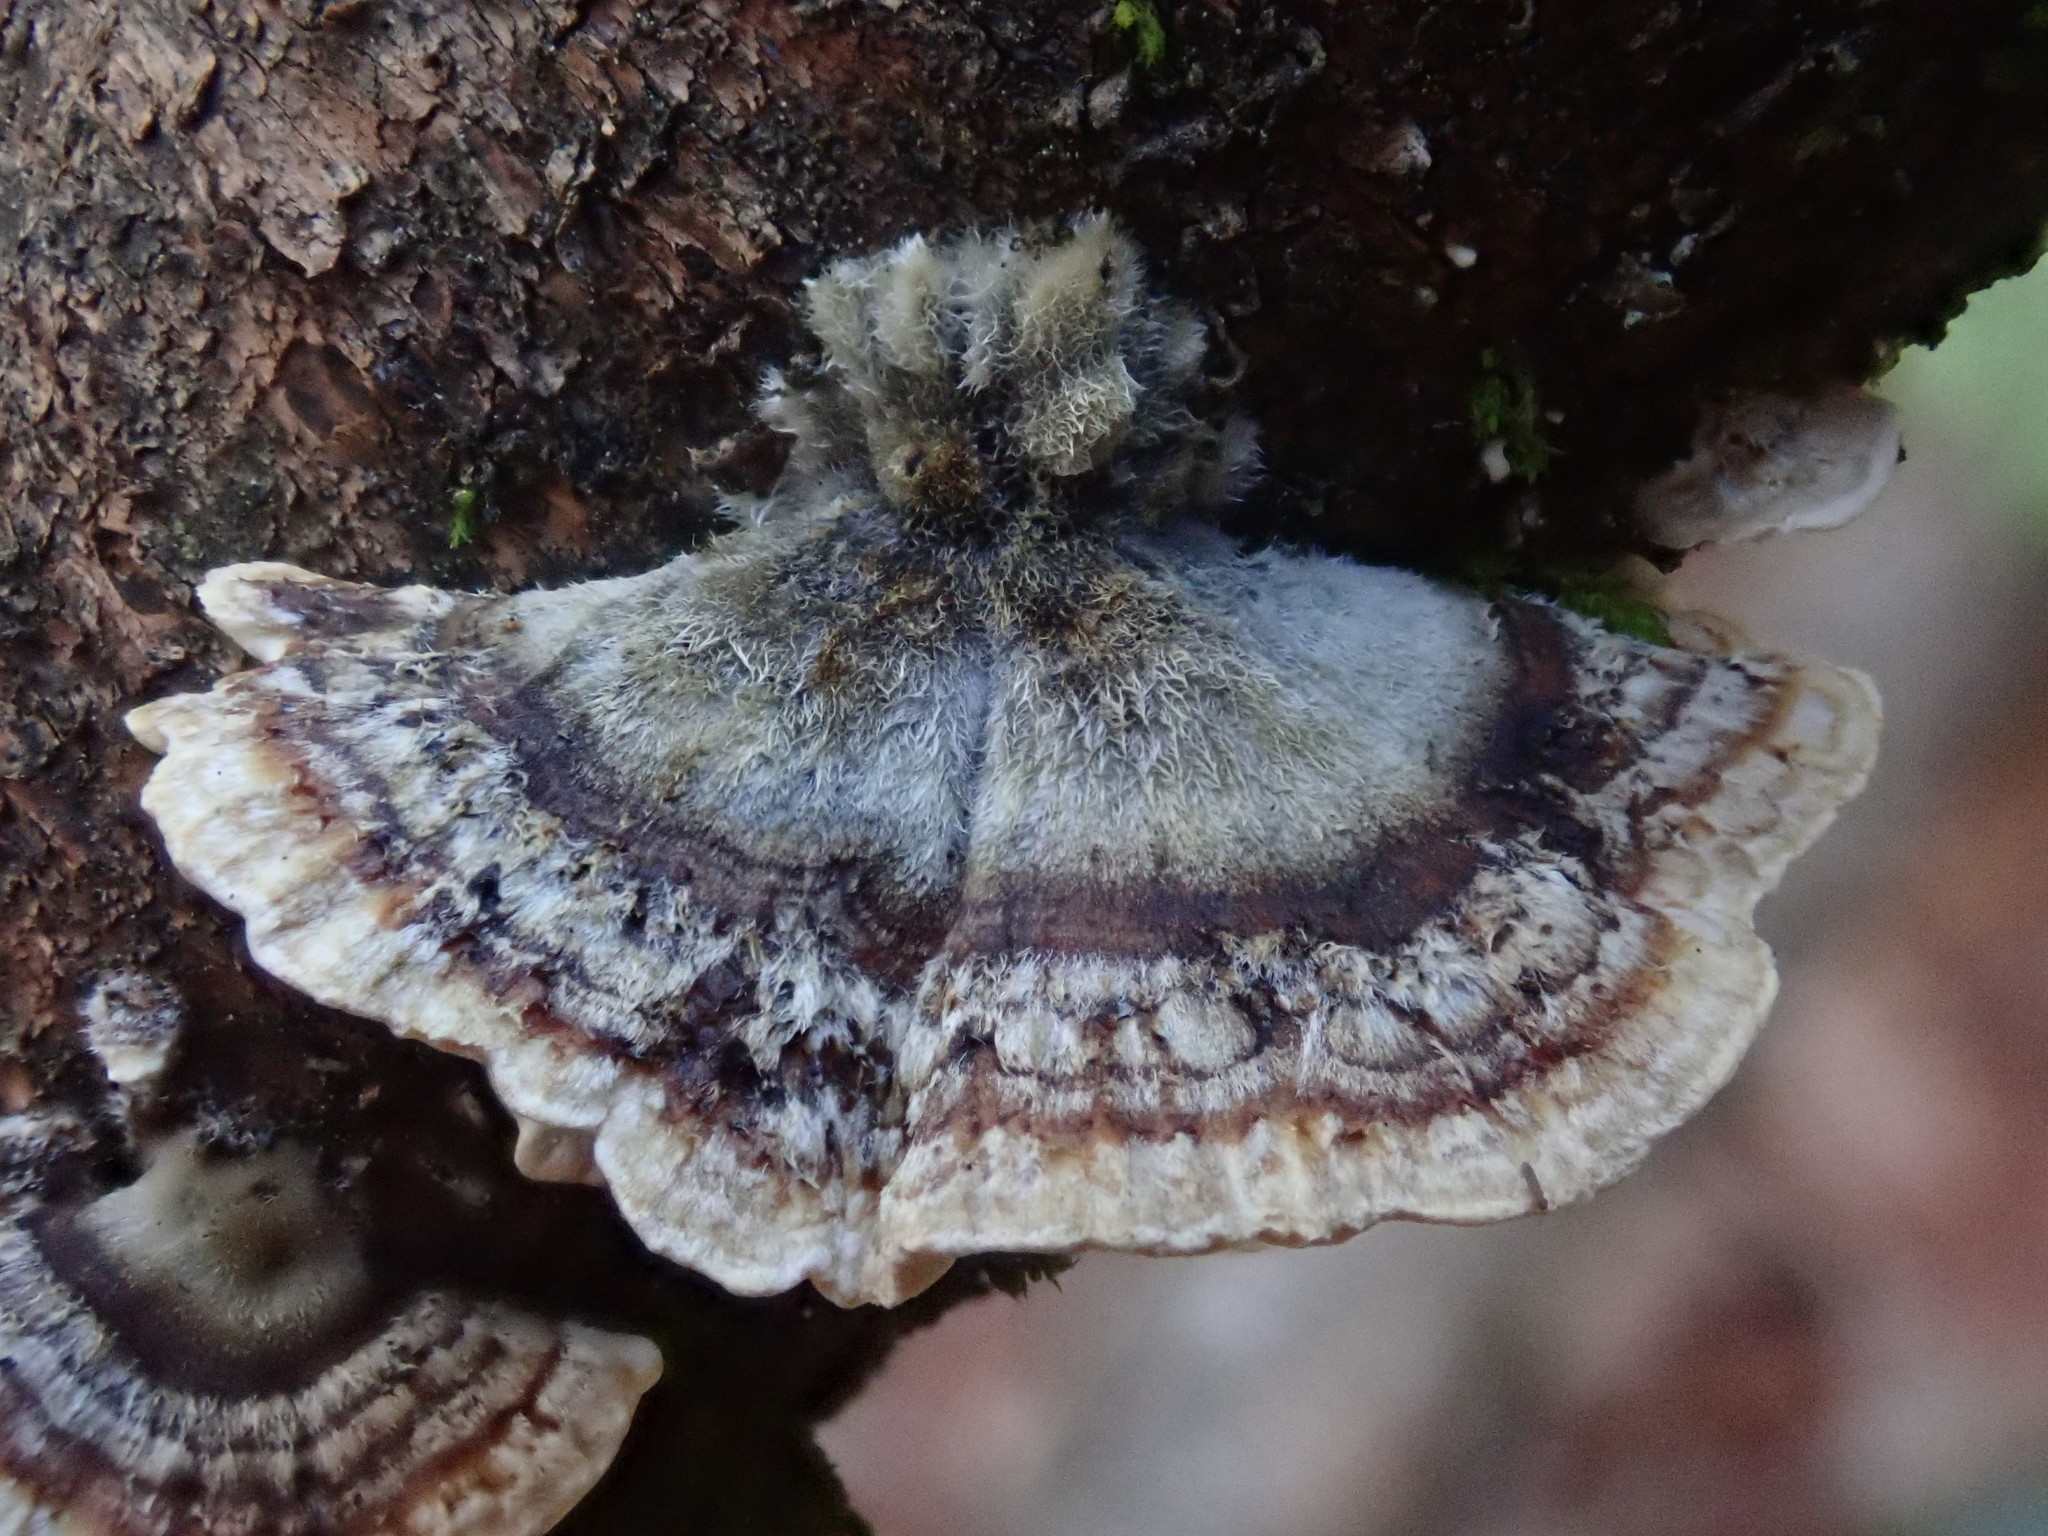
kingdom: Fungi
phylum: Basidiomycota
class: Agaricomycetes
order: Polyporales
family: Polyporaceae
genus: Trametes
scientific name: Trametes versicolor
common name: Turkeytail
